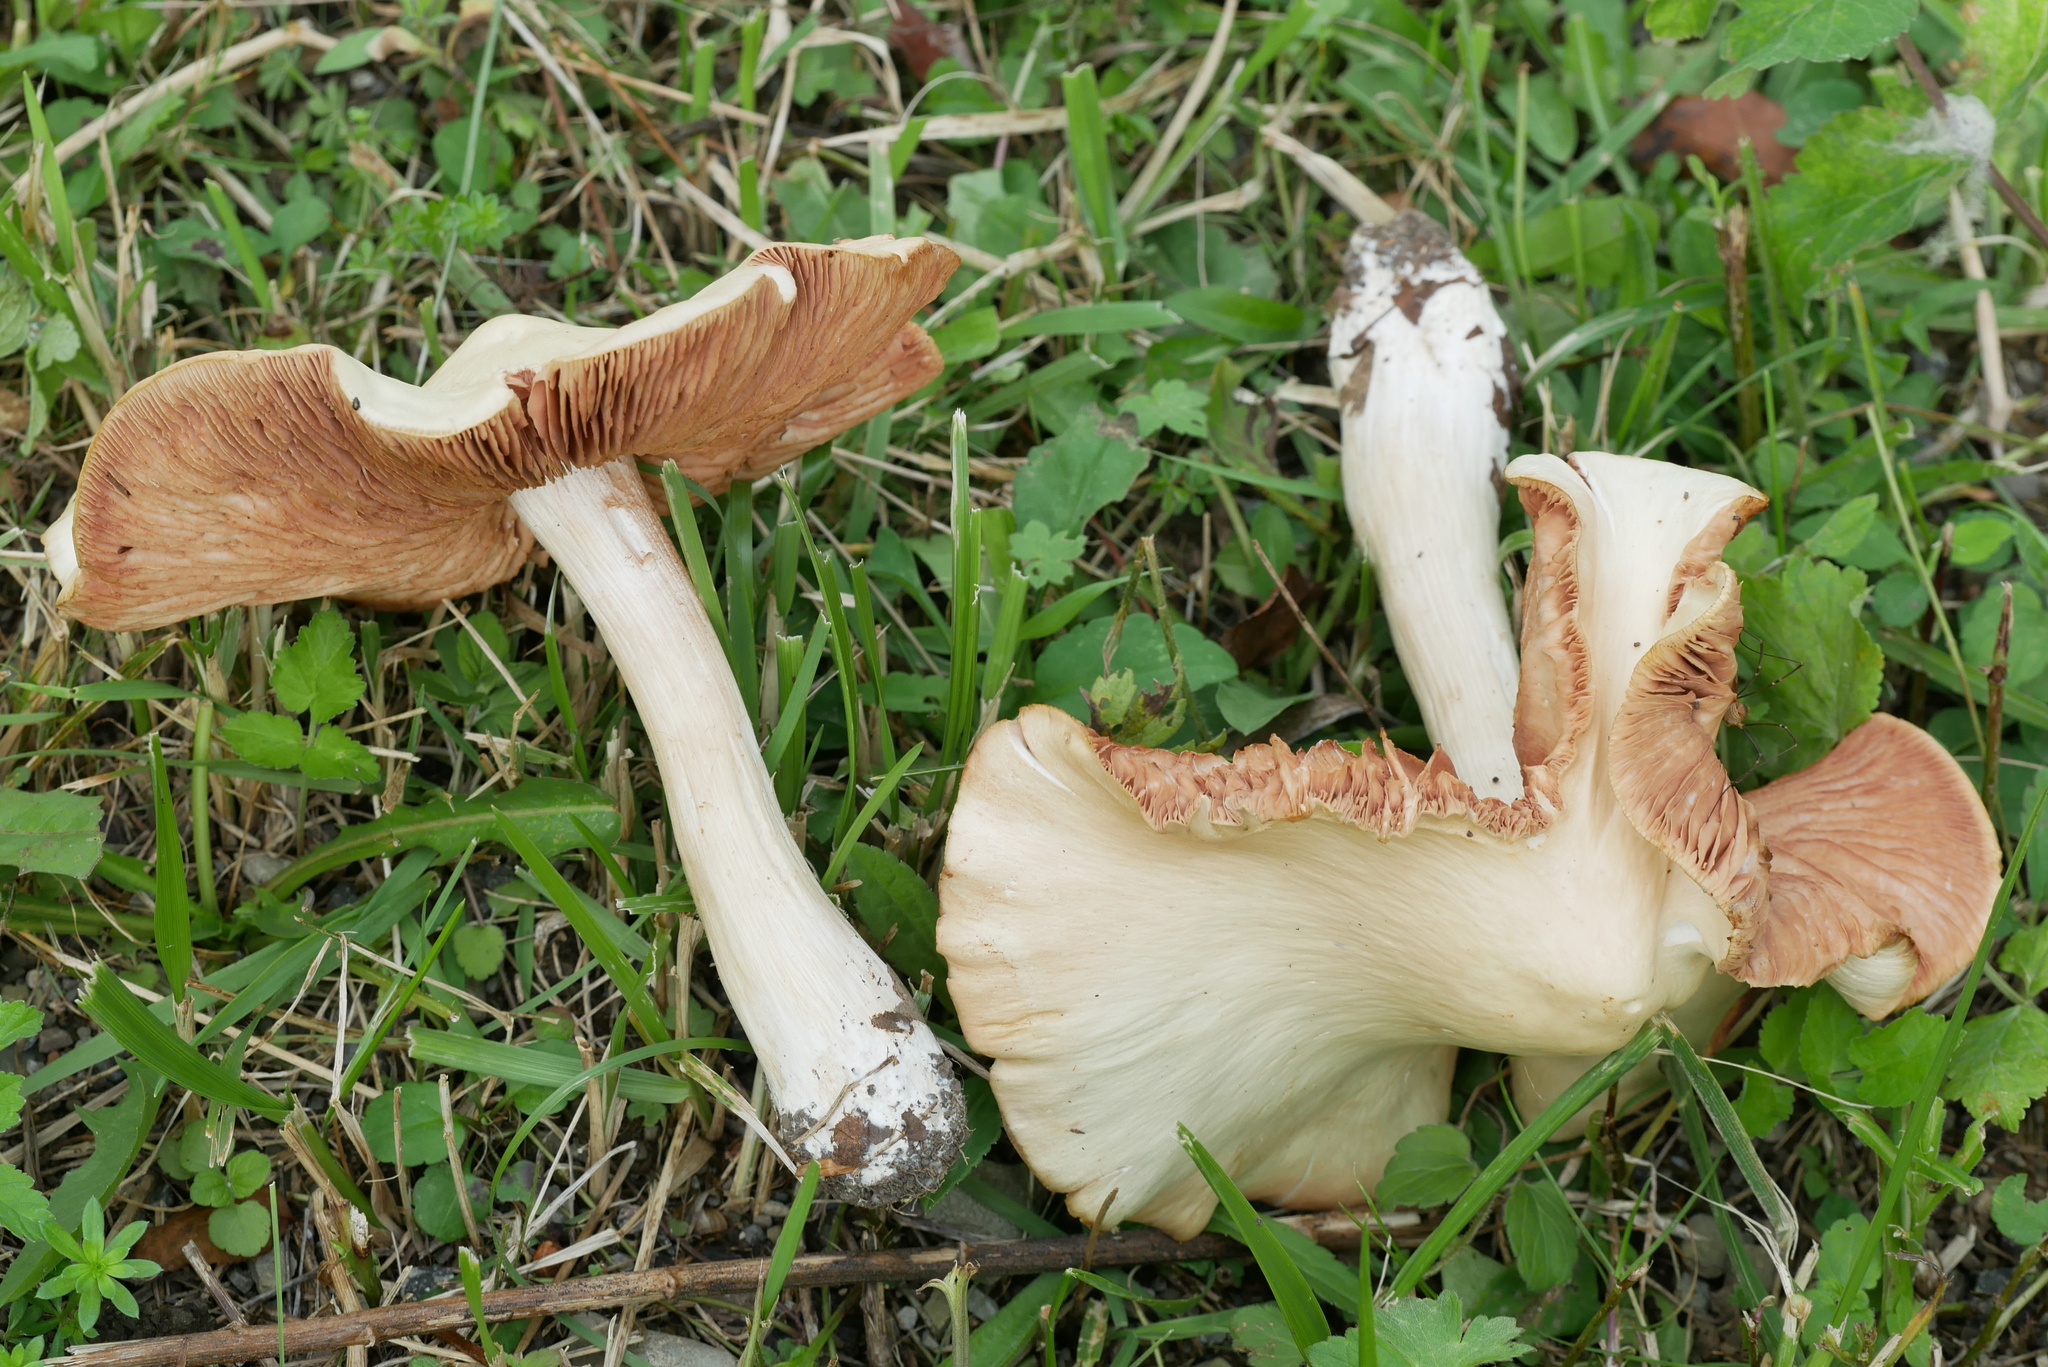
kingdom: Fungi
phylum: Basidiomycota
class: Agaricomycetes
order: Agaricales
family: Entolomataceae
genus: Entoloma
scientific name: Entoloma subsinuatum
